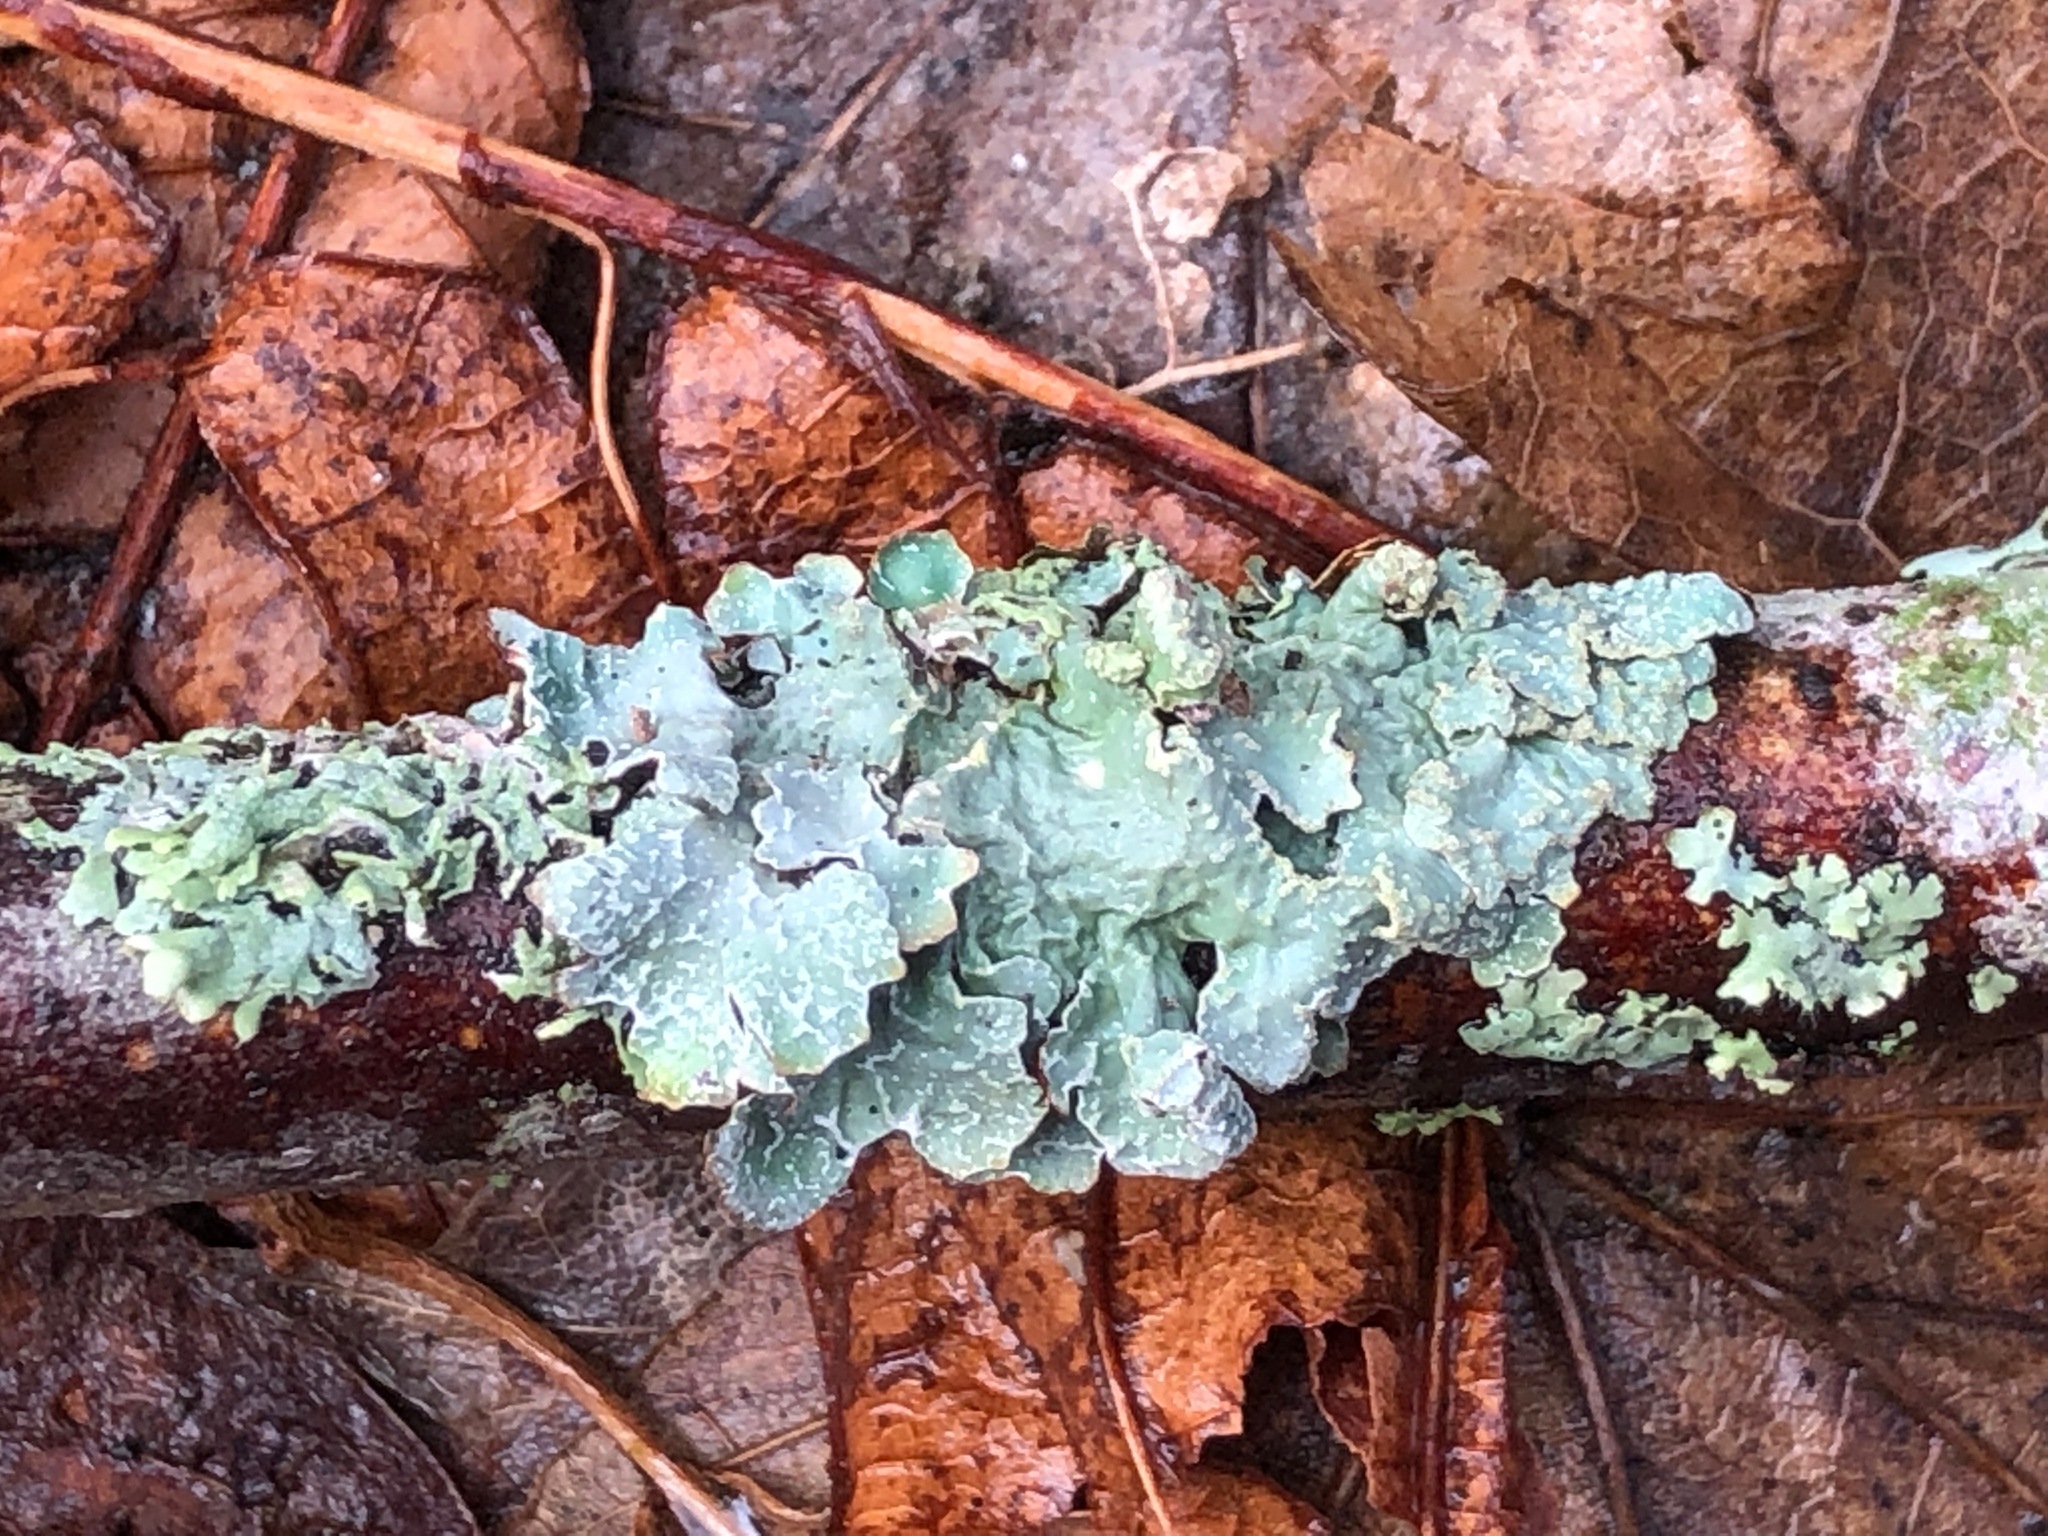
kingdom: Fungi
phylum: Ascomycota
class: Lecanoromycetes
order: Lecanorales
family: Parmeliaceae
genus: Parmelia
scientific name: Parmelia sulcata
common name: Netted shield lichen
